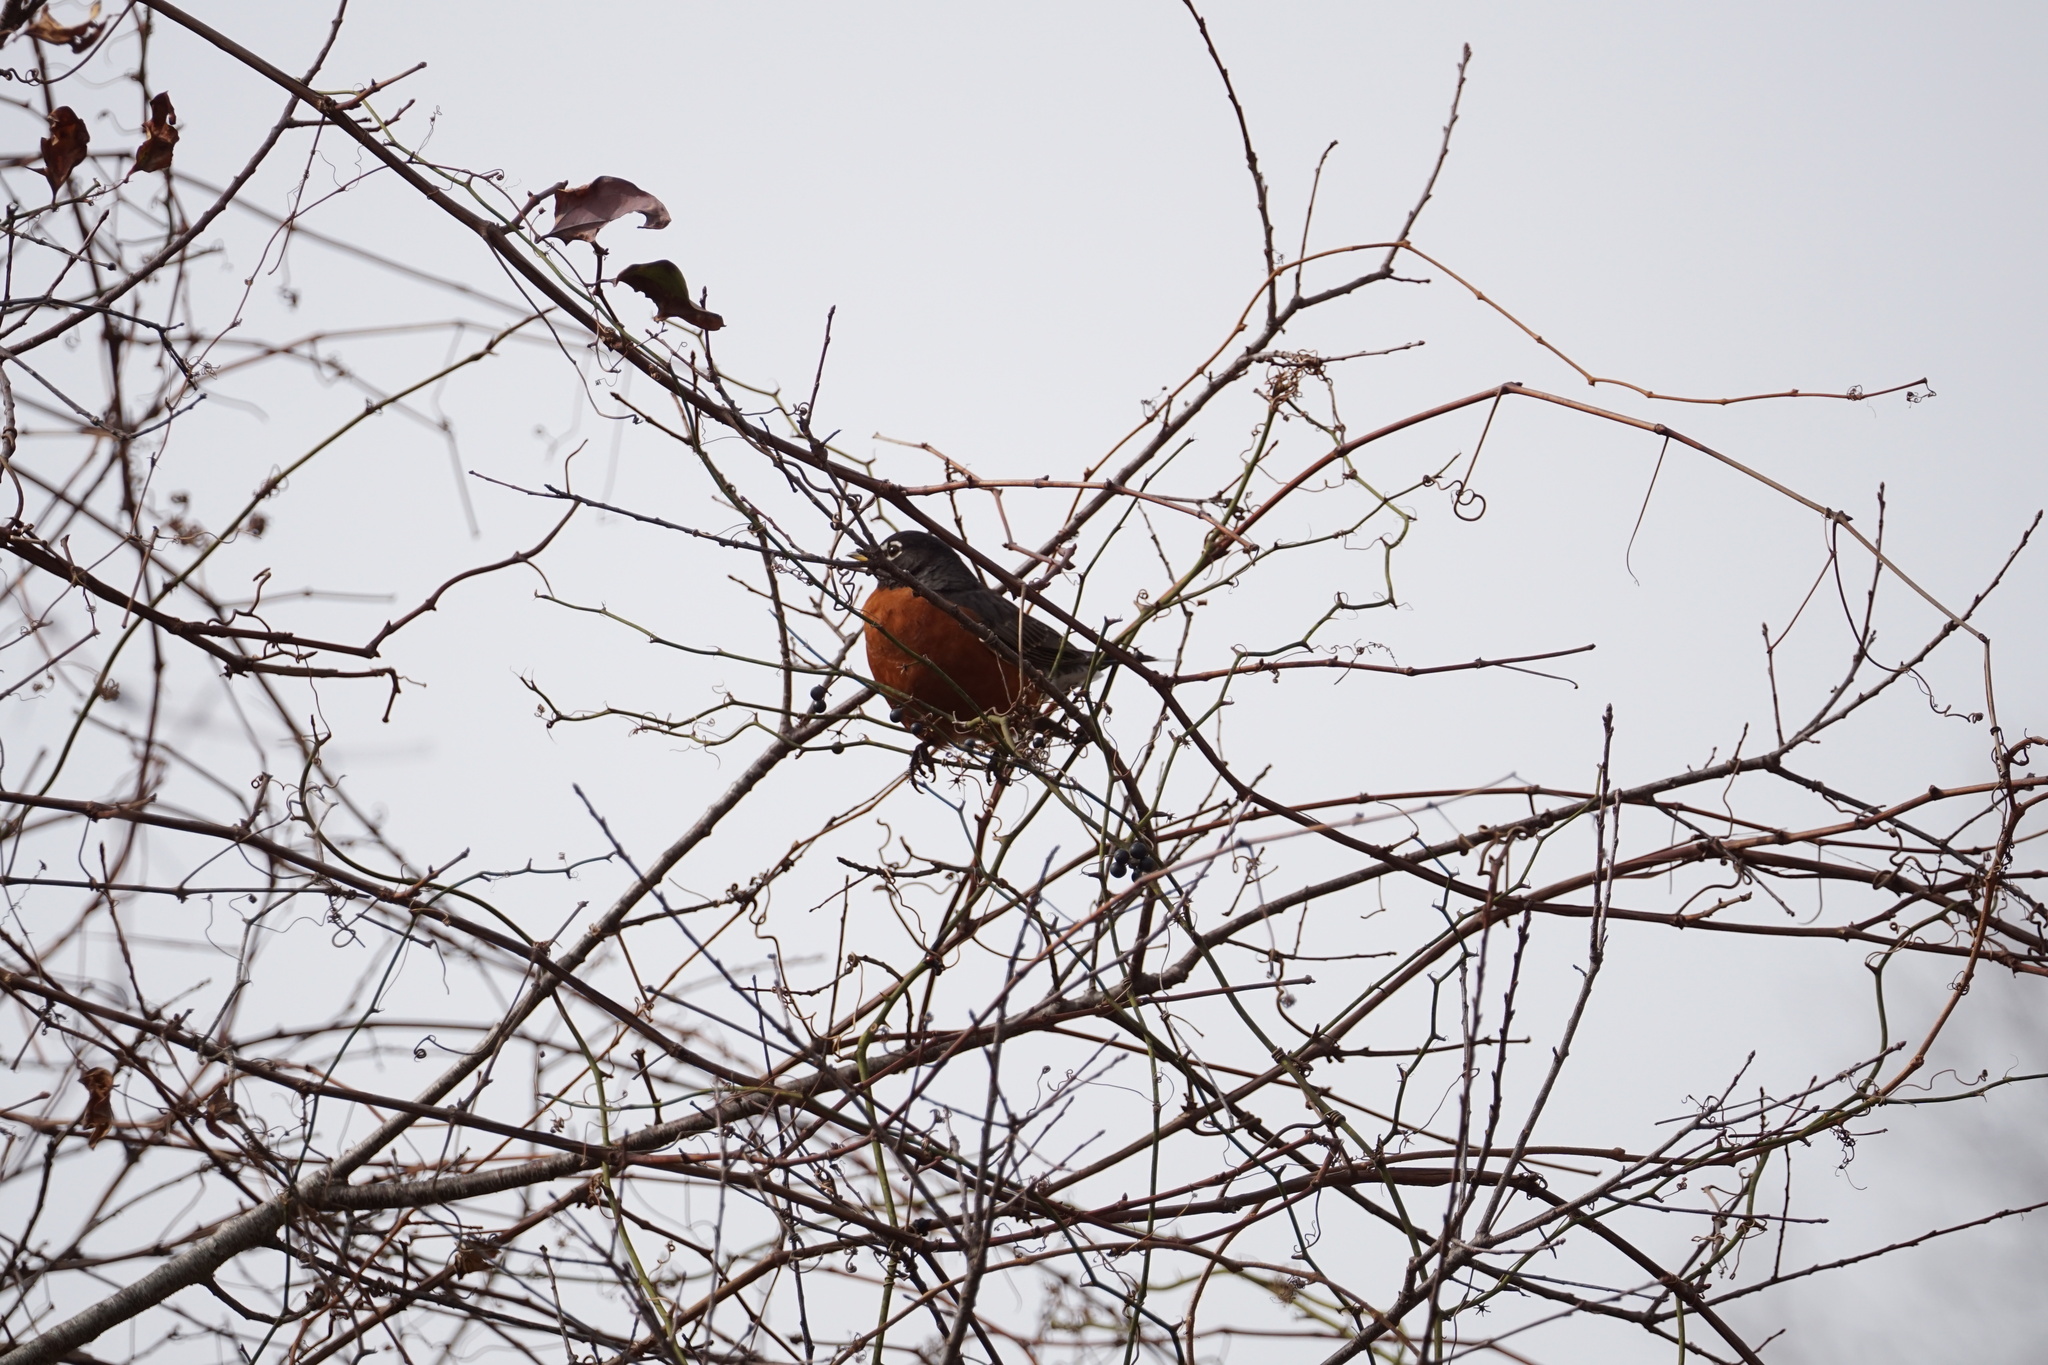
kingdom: Animalia
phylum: Chordata
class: Aves
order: Passeriformes
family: Turdidae
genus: Turdus
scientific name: Turdus migratorius
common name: American robin
